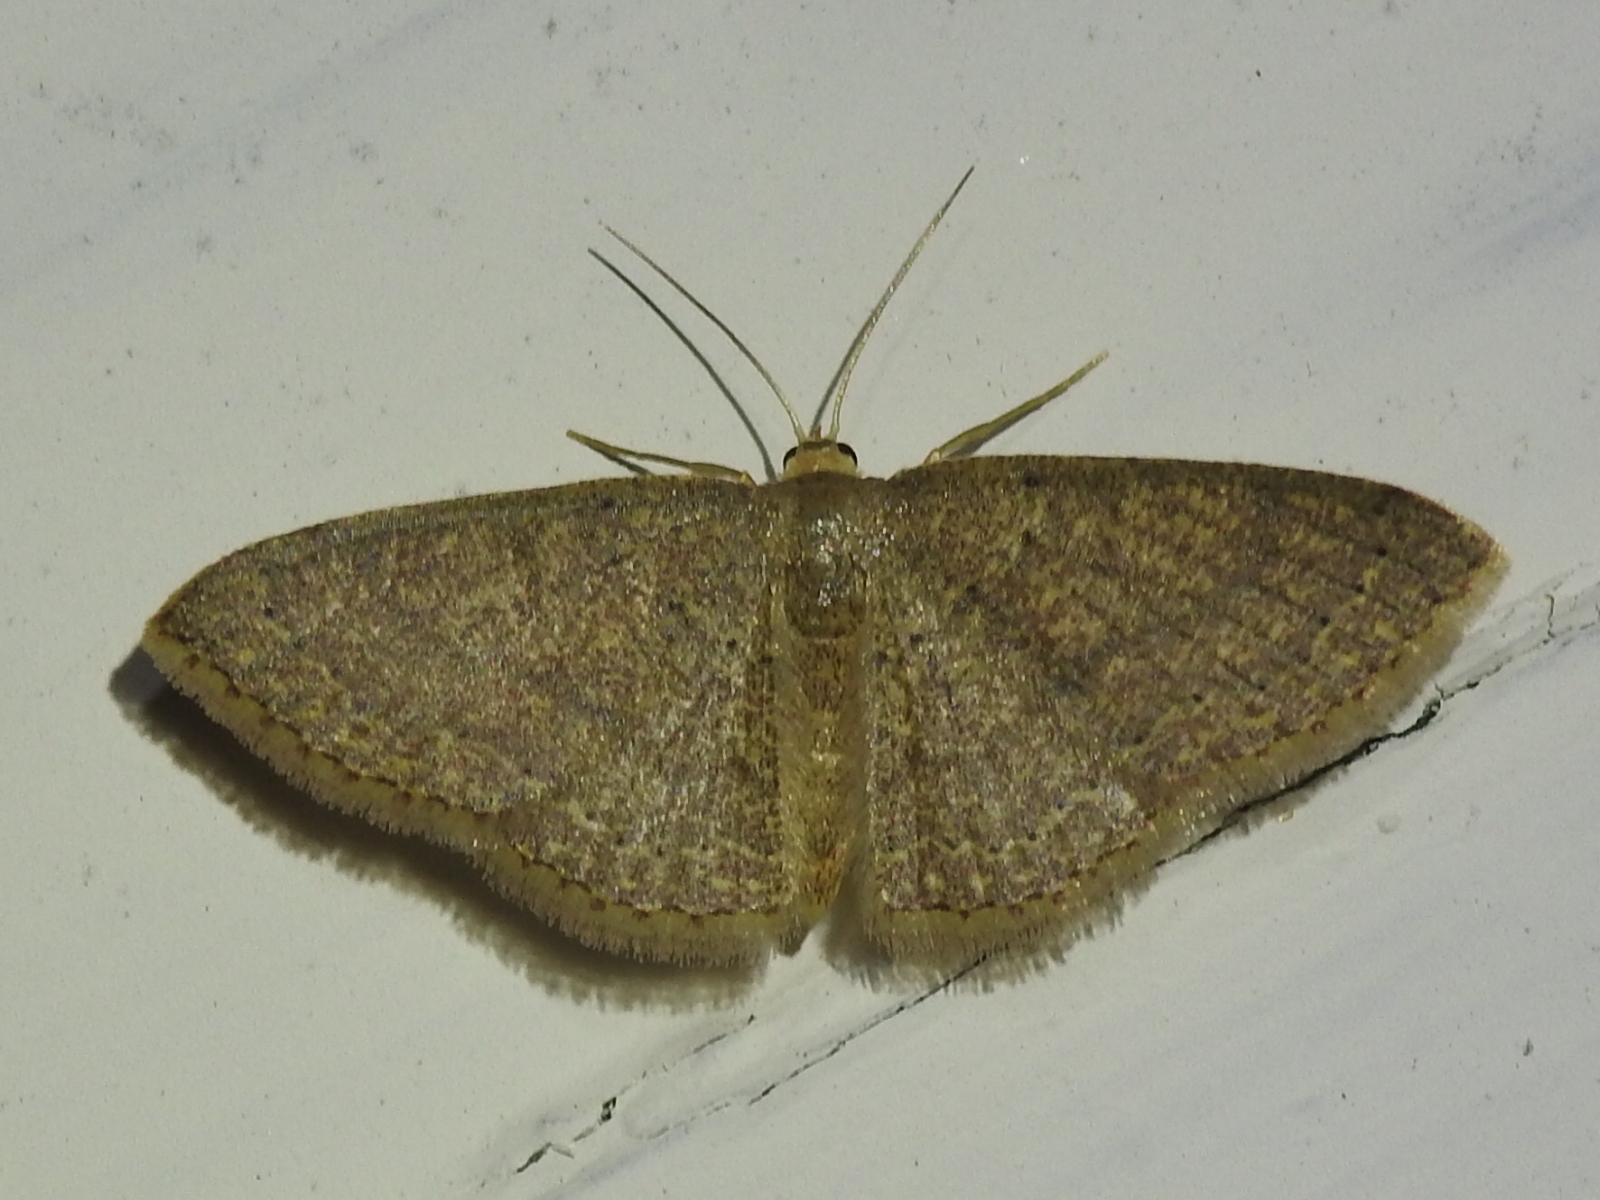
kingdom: Animalia
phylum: Arthropoda
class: Insecta
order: Lepidoptera
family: Geometridae
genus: Pleuroprucha
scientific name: Pleuroprucha insulsaria
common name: Common tan wave
